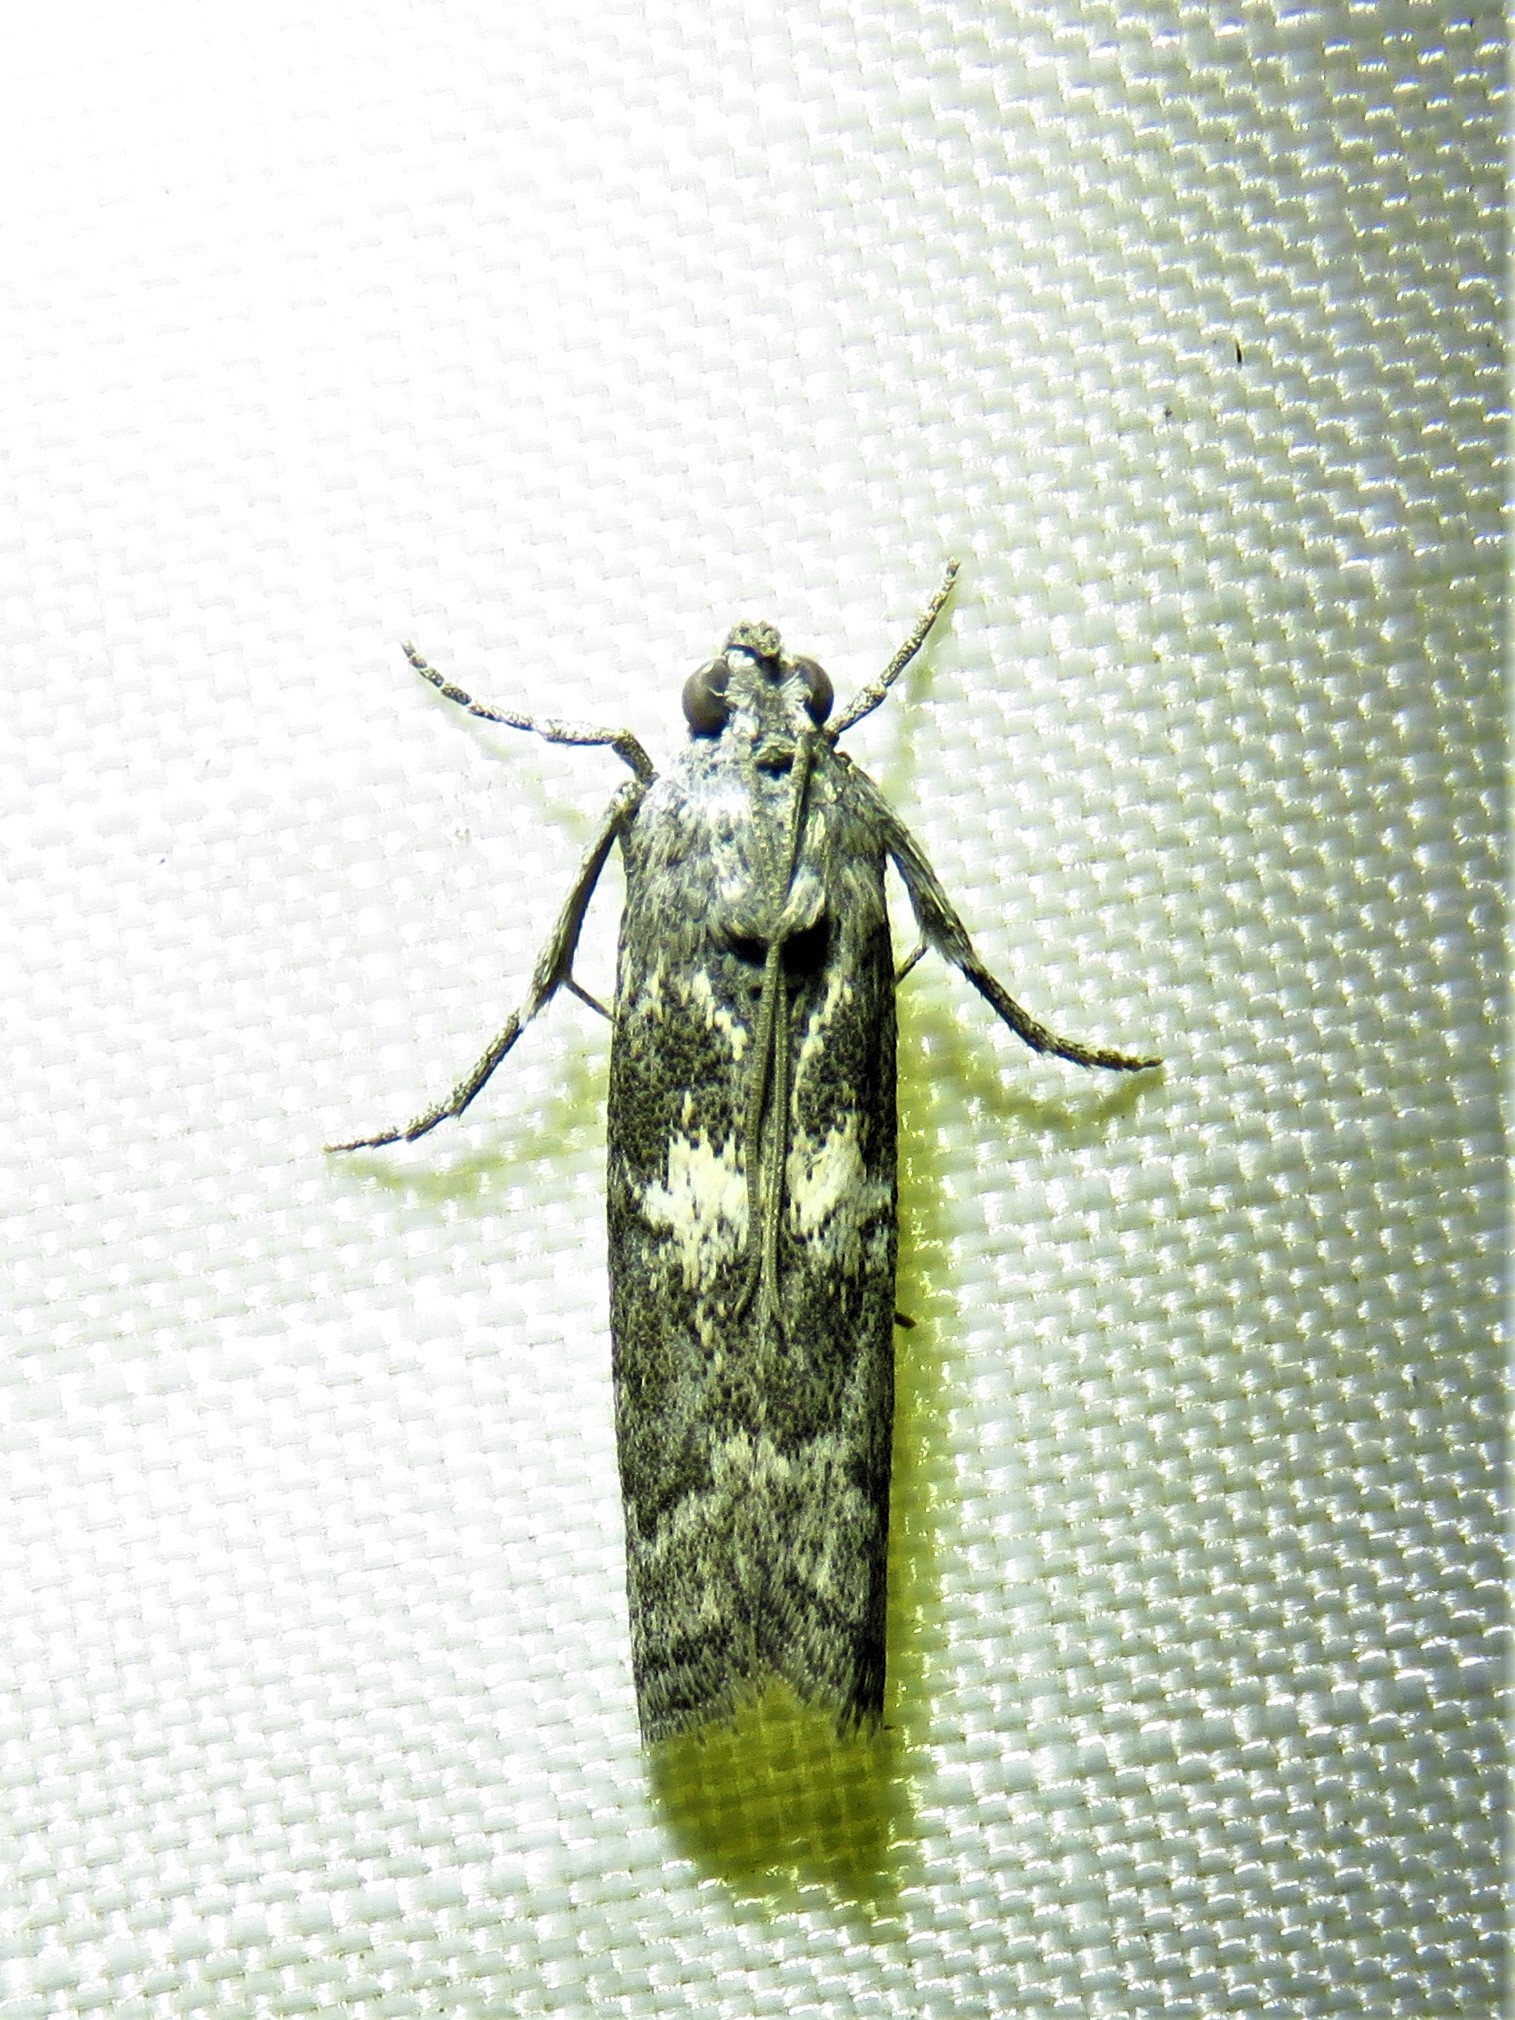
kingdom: Animalia
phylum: Arthropoda
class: Insecta
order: Lepidoptera
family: Pyralidae
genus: Tacoma
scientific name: Tacoma feriella
